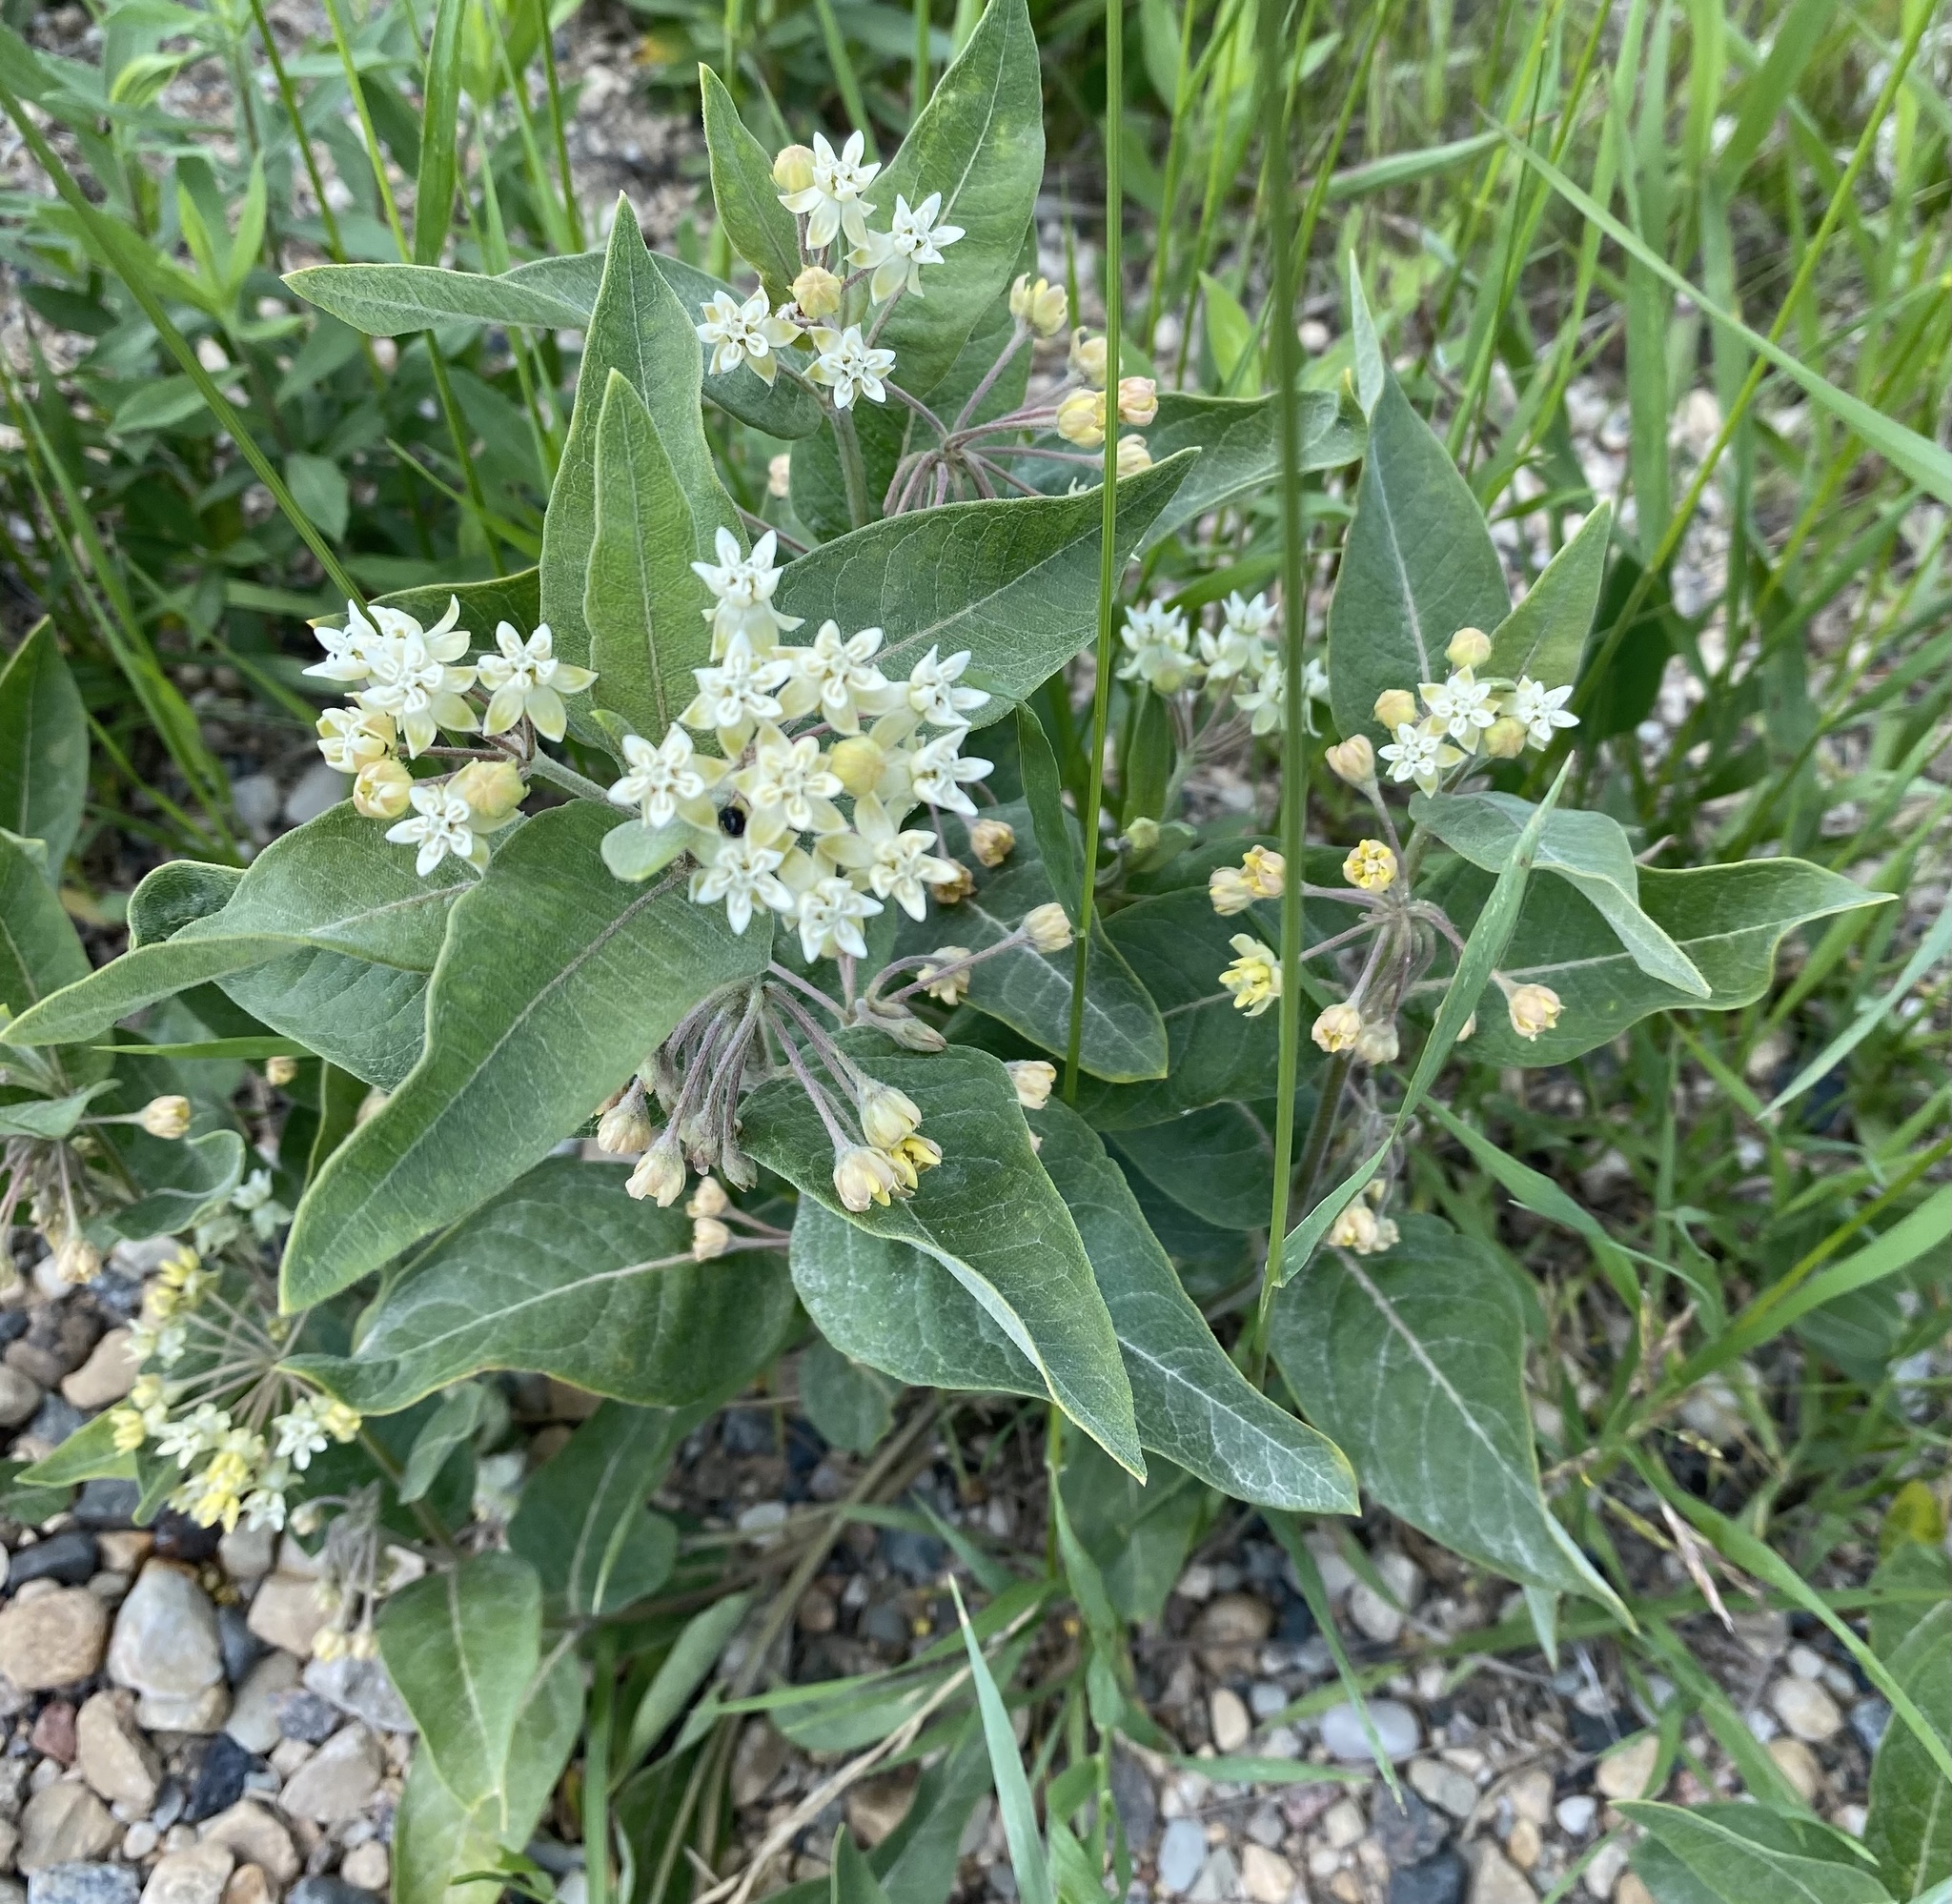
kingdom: Plantae
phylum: Tracheophyta
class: Magnoliopsida
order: Gentianales
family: Apocynaceae
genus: Asclepias
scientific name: Asclepias ovalifolia
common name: Dwarf milkweed
